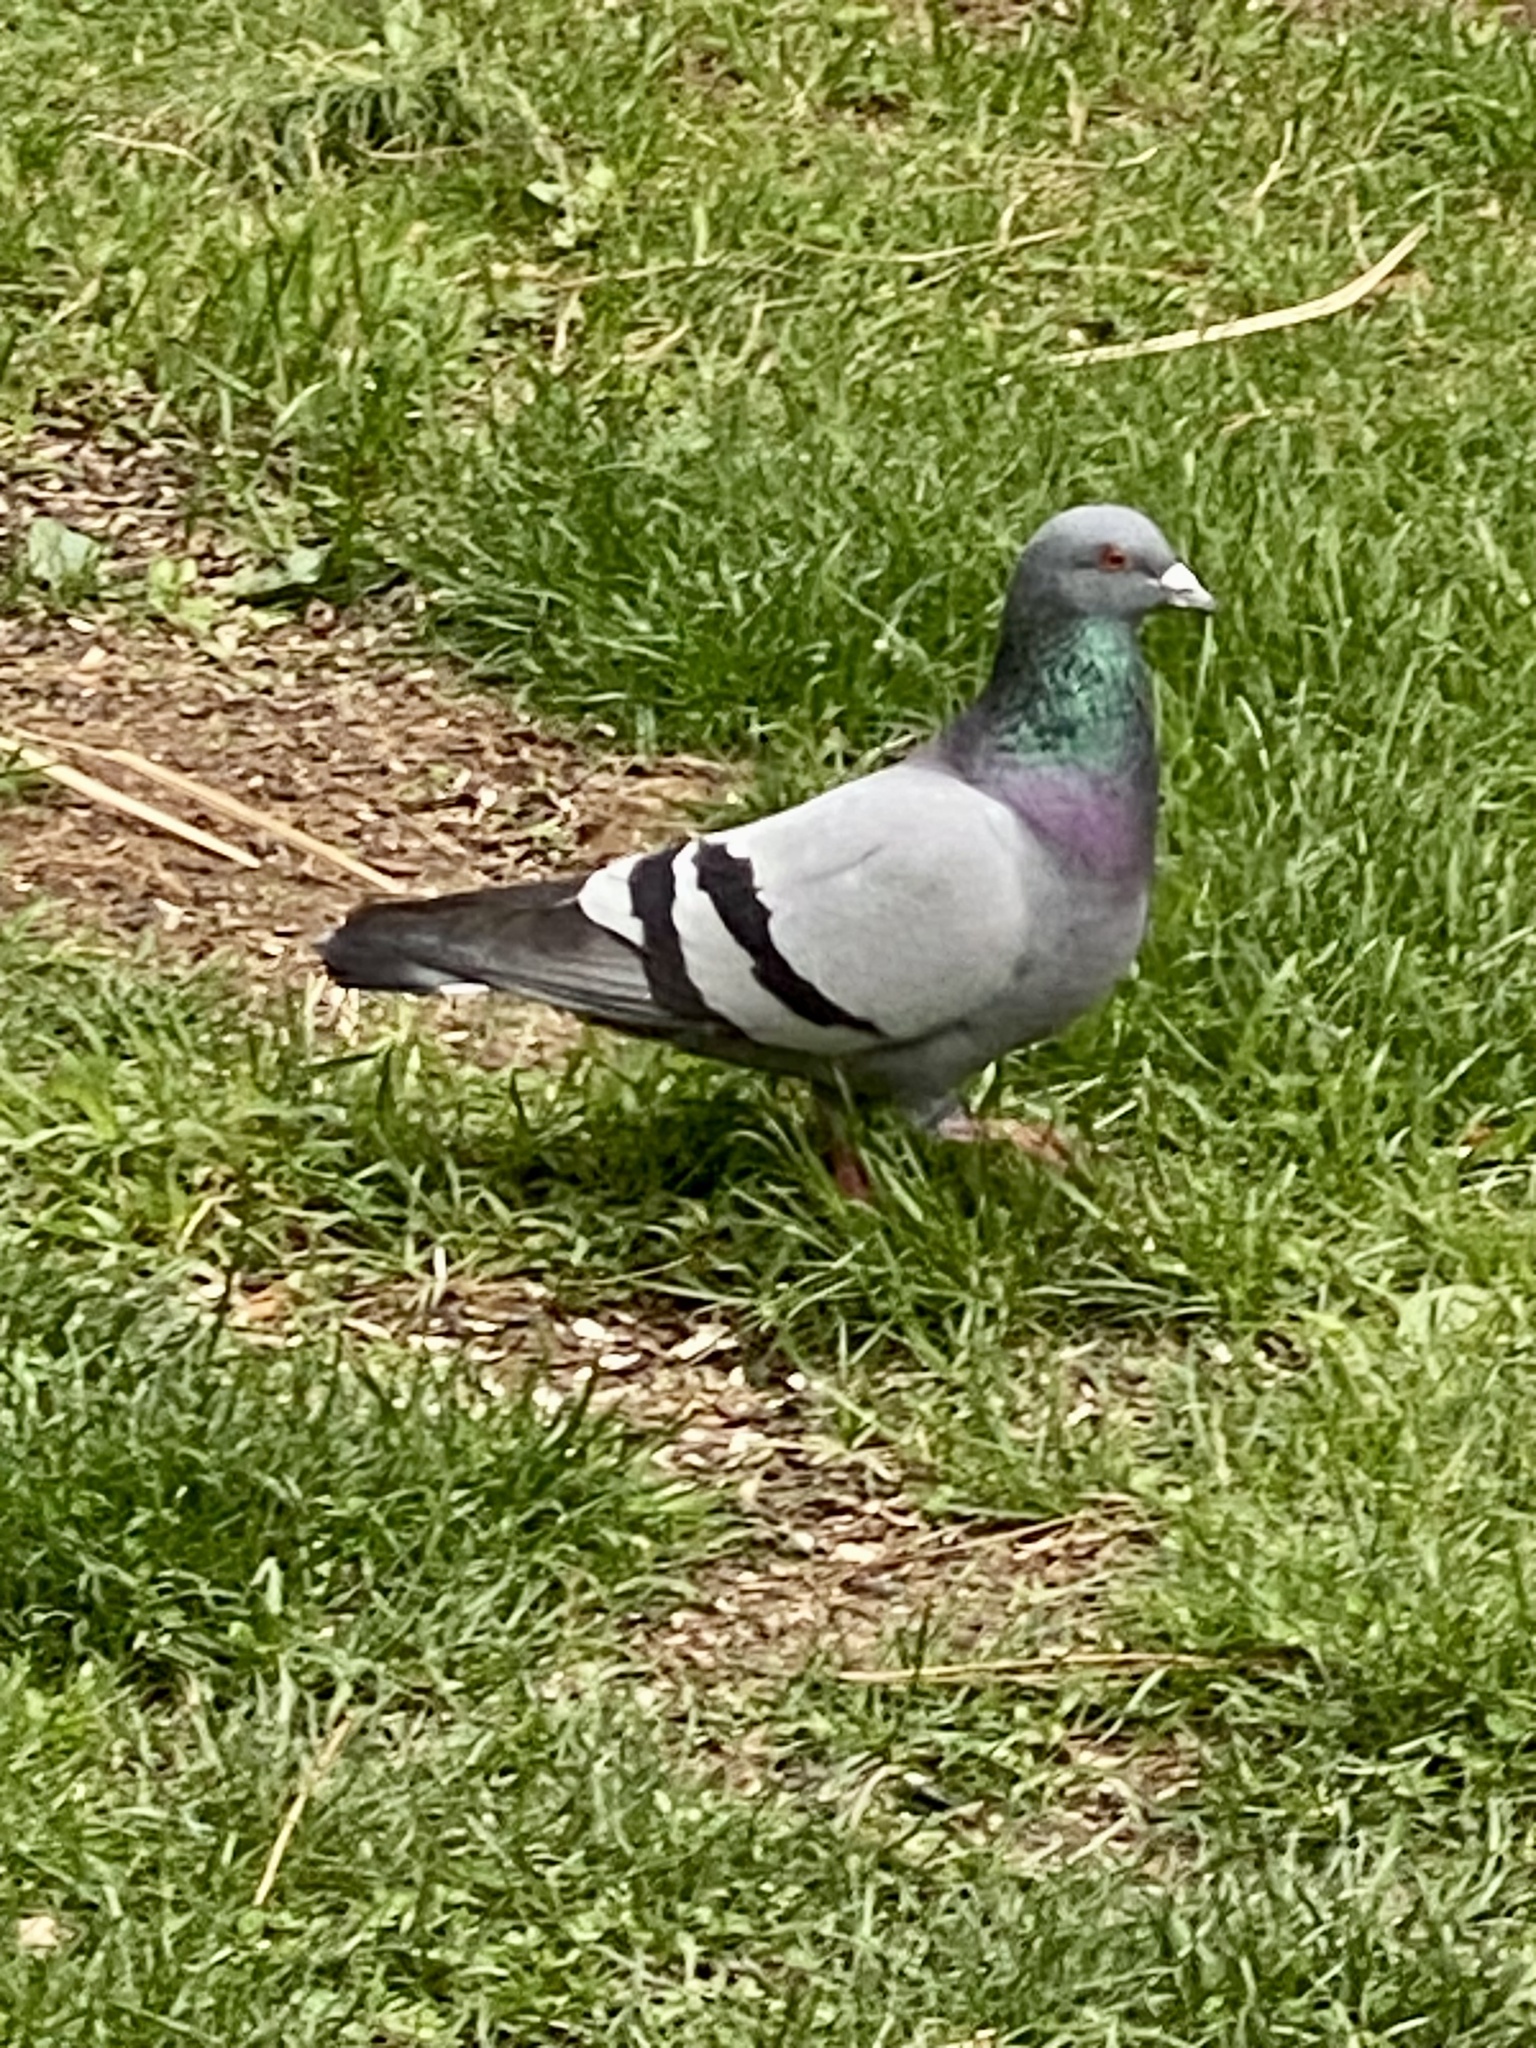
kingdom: Animalia
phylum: Chordata
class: Aves
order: Columbiformes
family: Columbidae
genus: Columba
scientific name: Columba livia
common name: Rock pigeon
